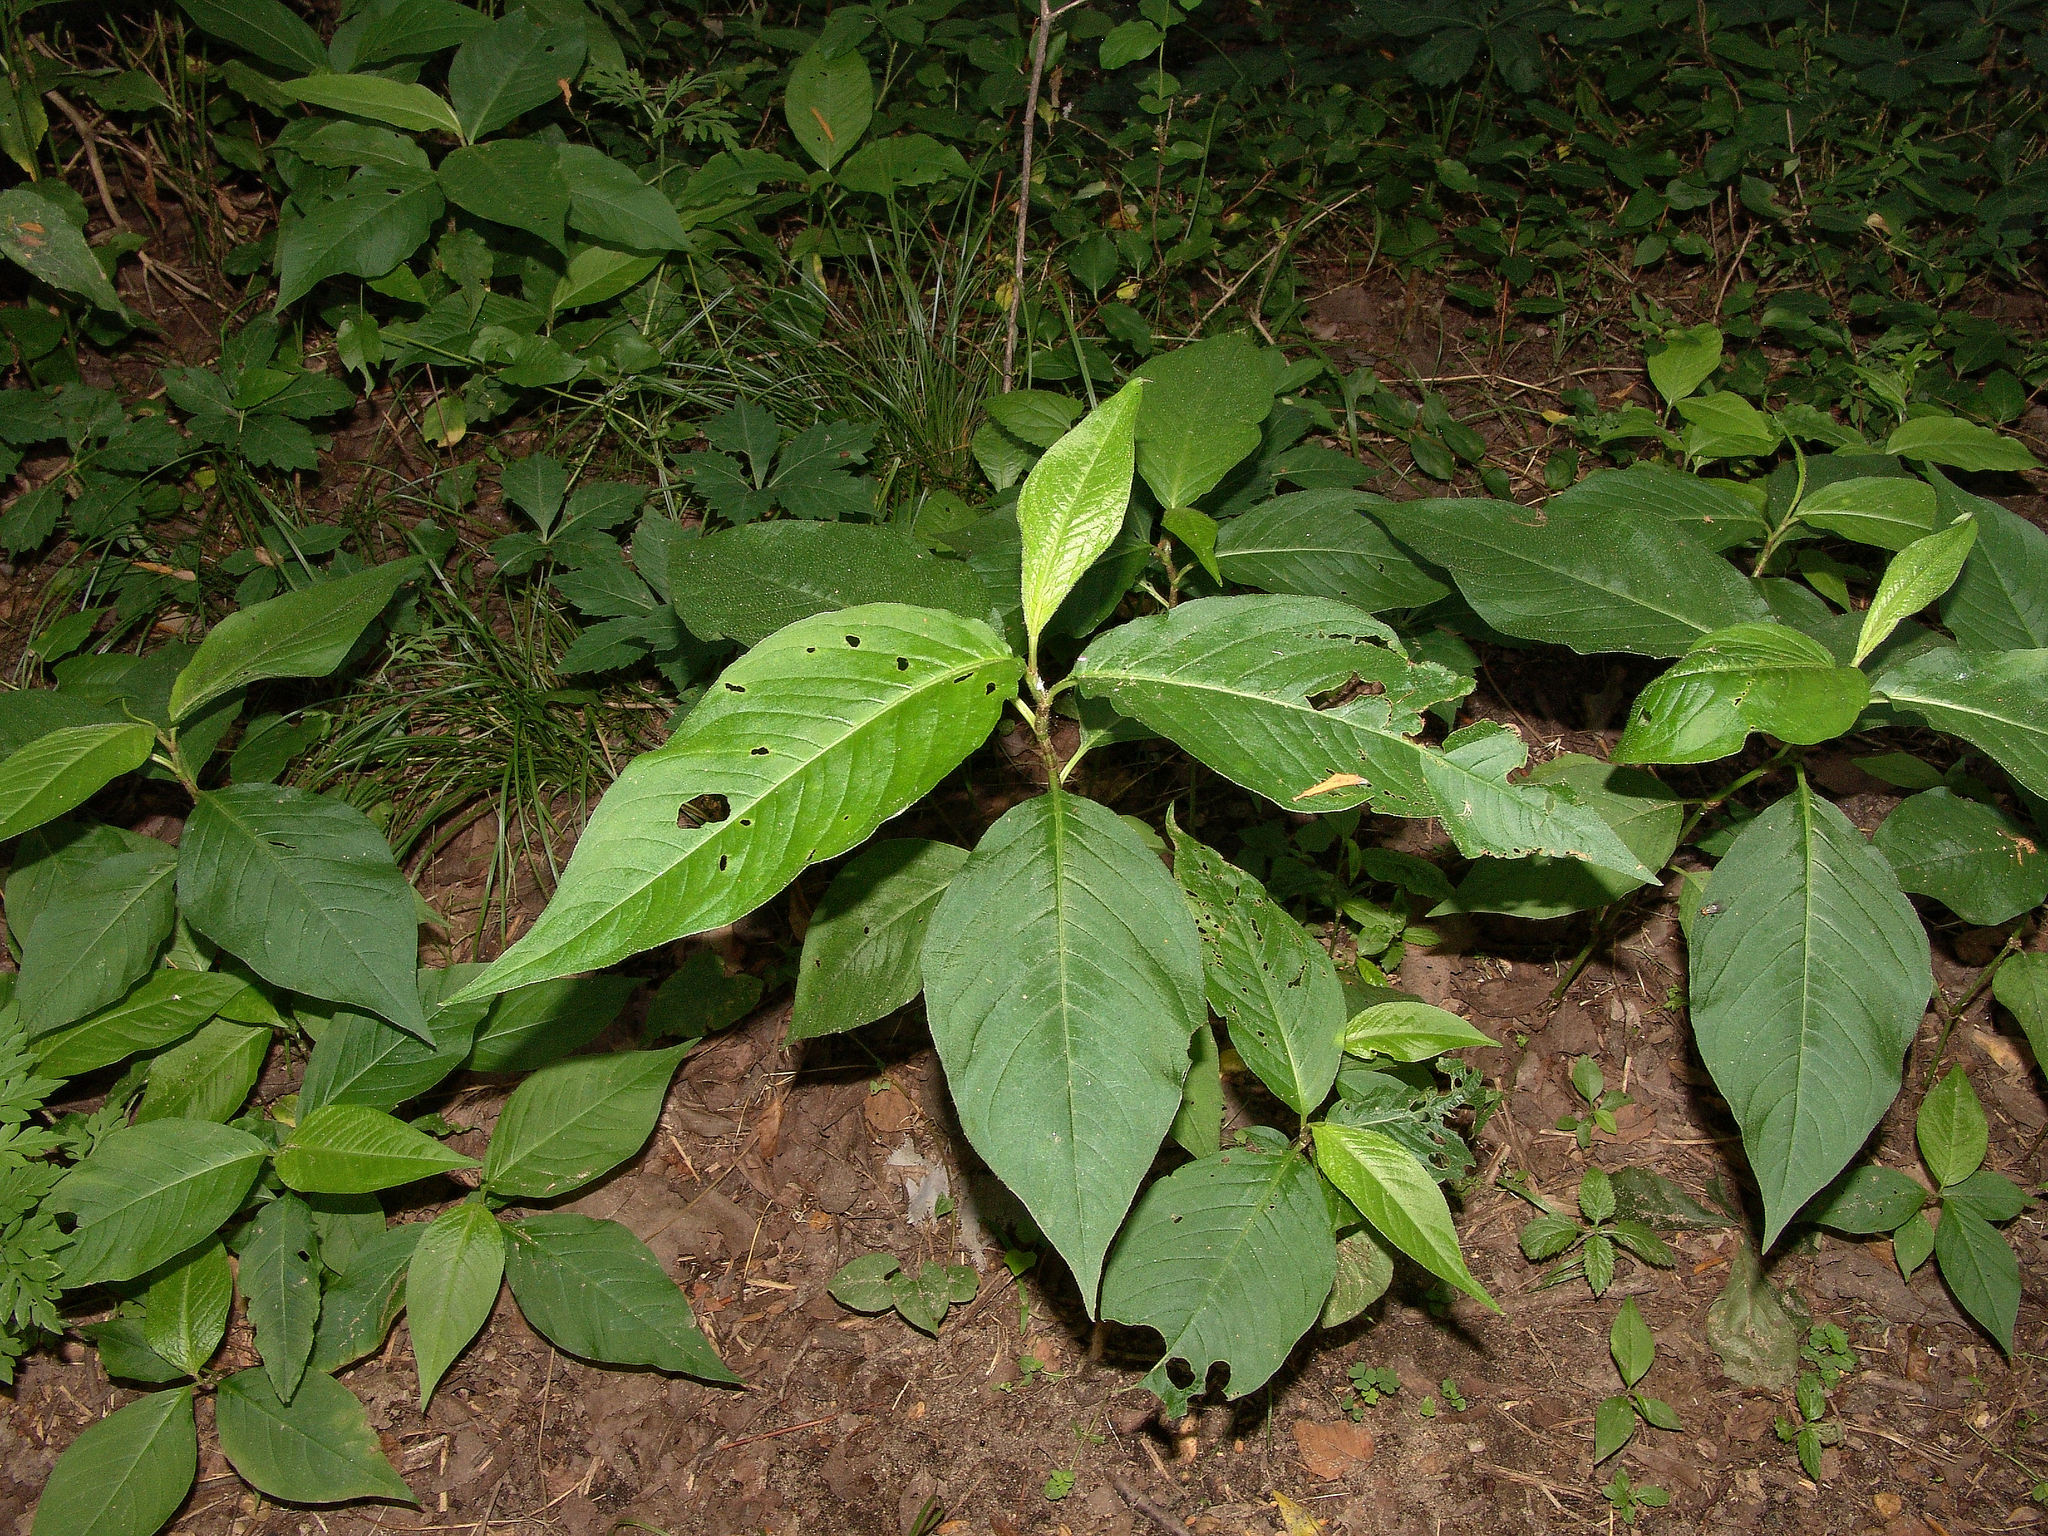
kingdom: Plantae
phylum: Tracheophyta
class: Magnoliopsida
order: Caryophyllales
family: Polygonaceae
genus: Persicaria
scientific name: Persicaria virginiana
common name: Jumpseed
